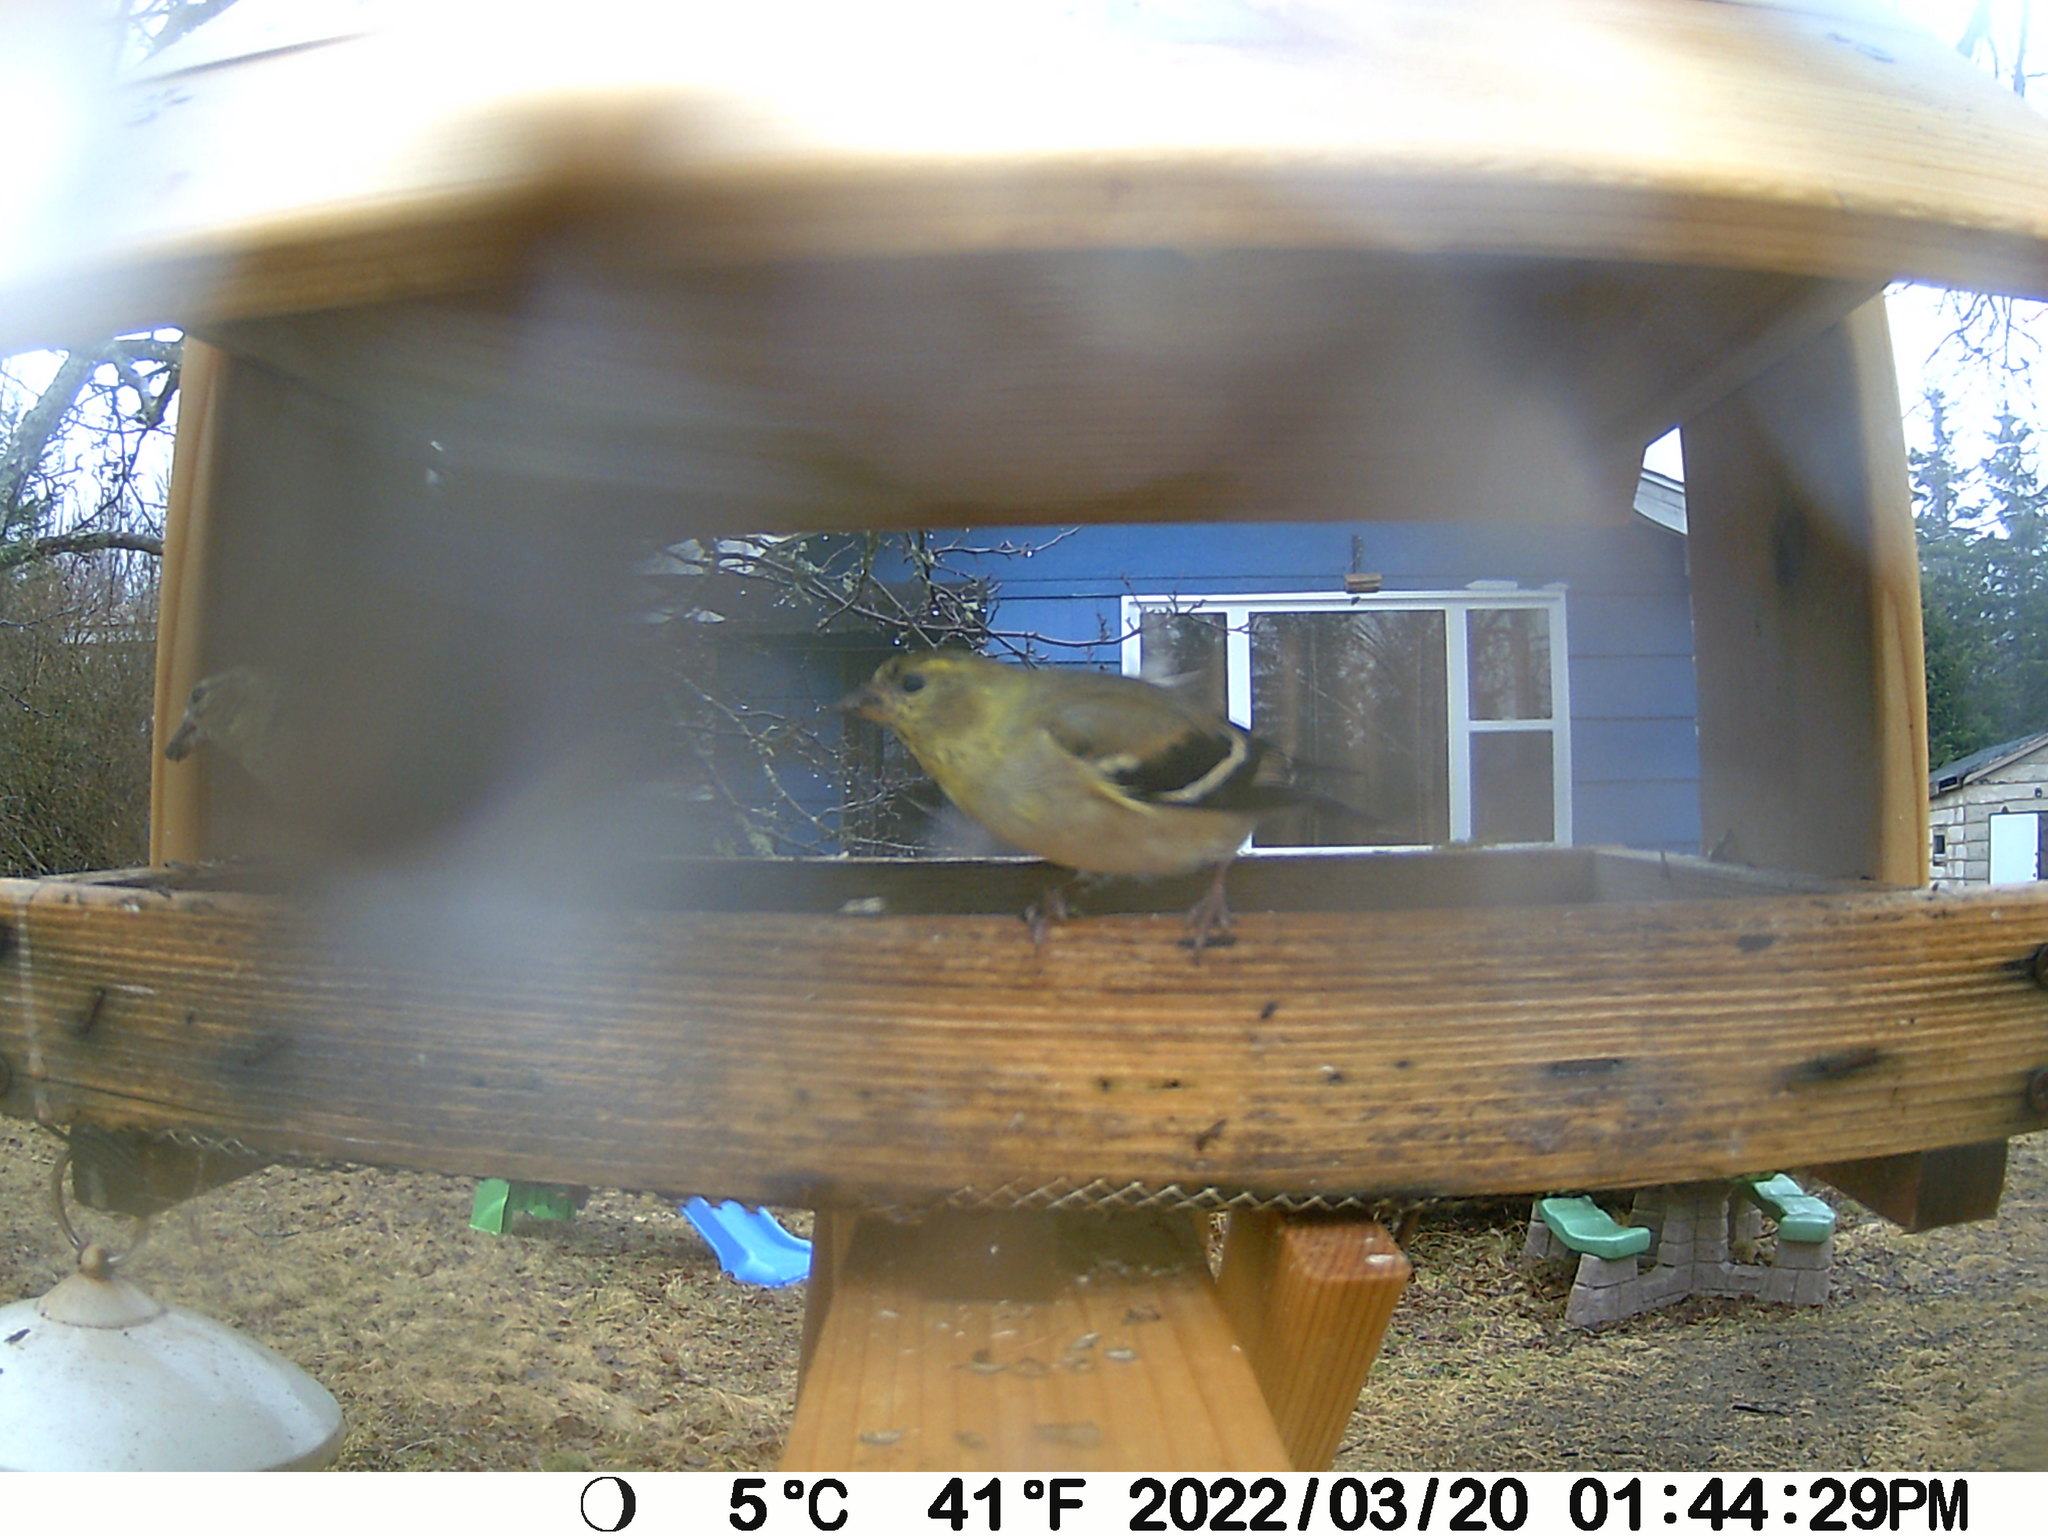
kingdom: Animalia
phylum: Chordata
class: Aves
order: Passeriformes
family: Fringillidae
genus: Spinus
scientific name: Spinus tristis
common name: American goldfinch
